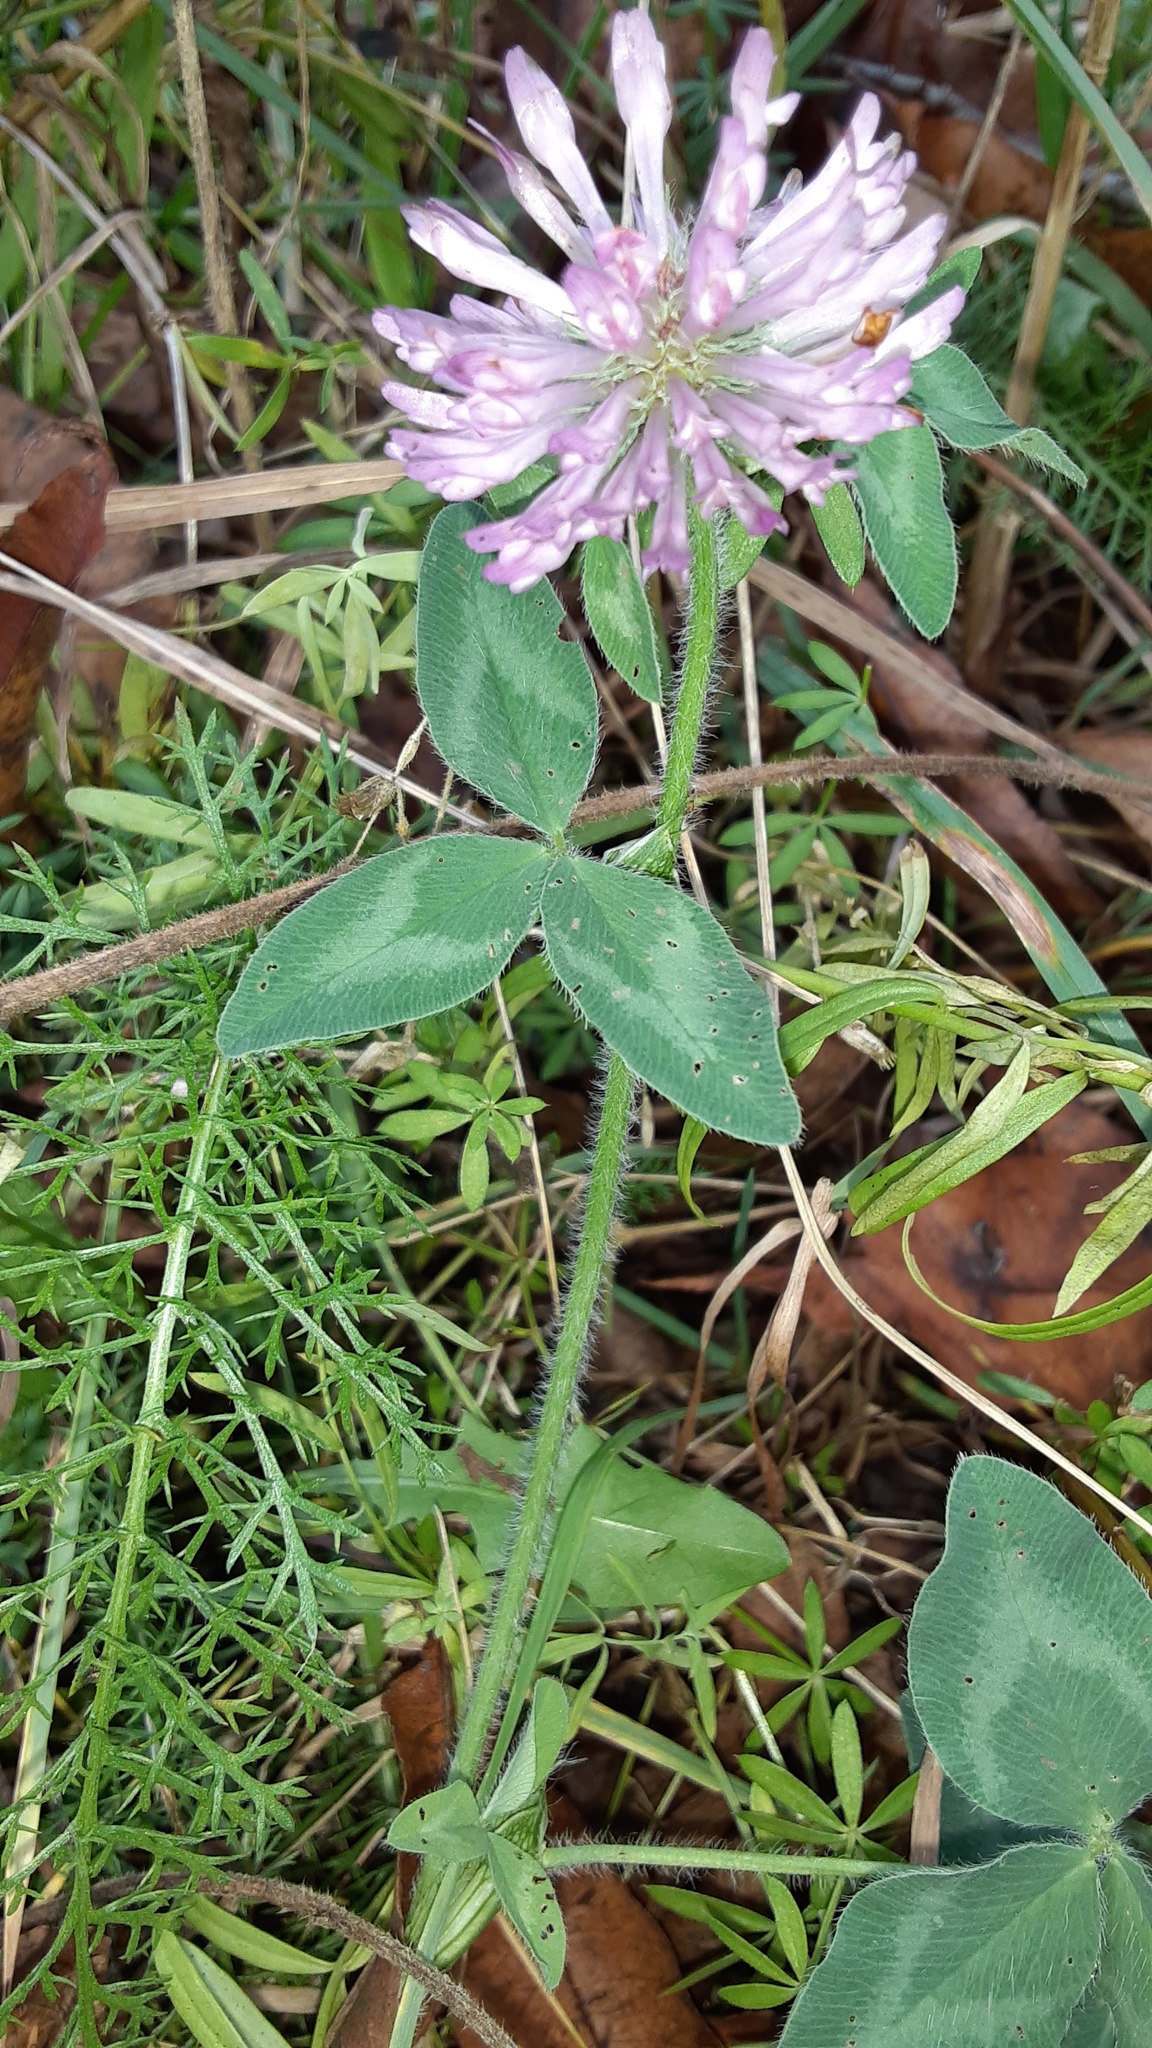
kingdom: Plantae
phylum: Tracheophyta
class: Magnoliopsida
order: Fabales
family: Fabaceae
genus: Trifolium
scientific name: Trifolium pratense
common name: Red clover
